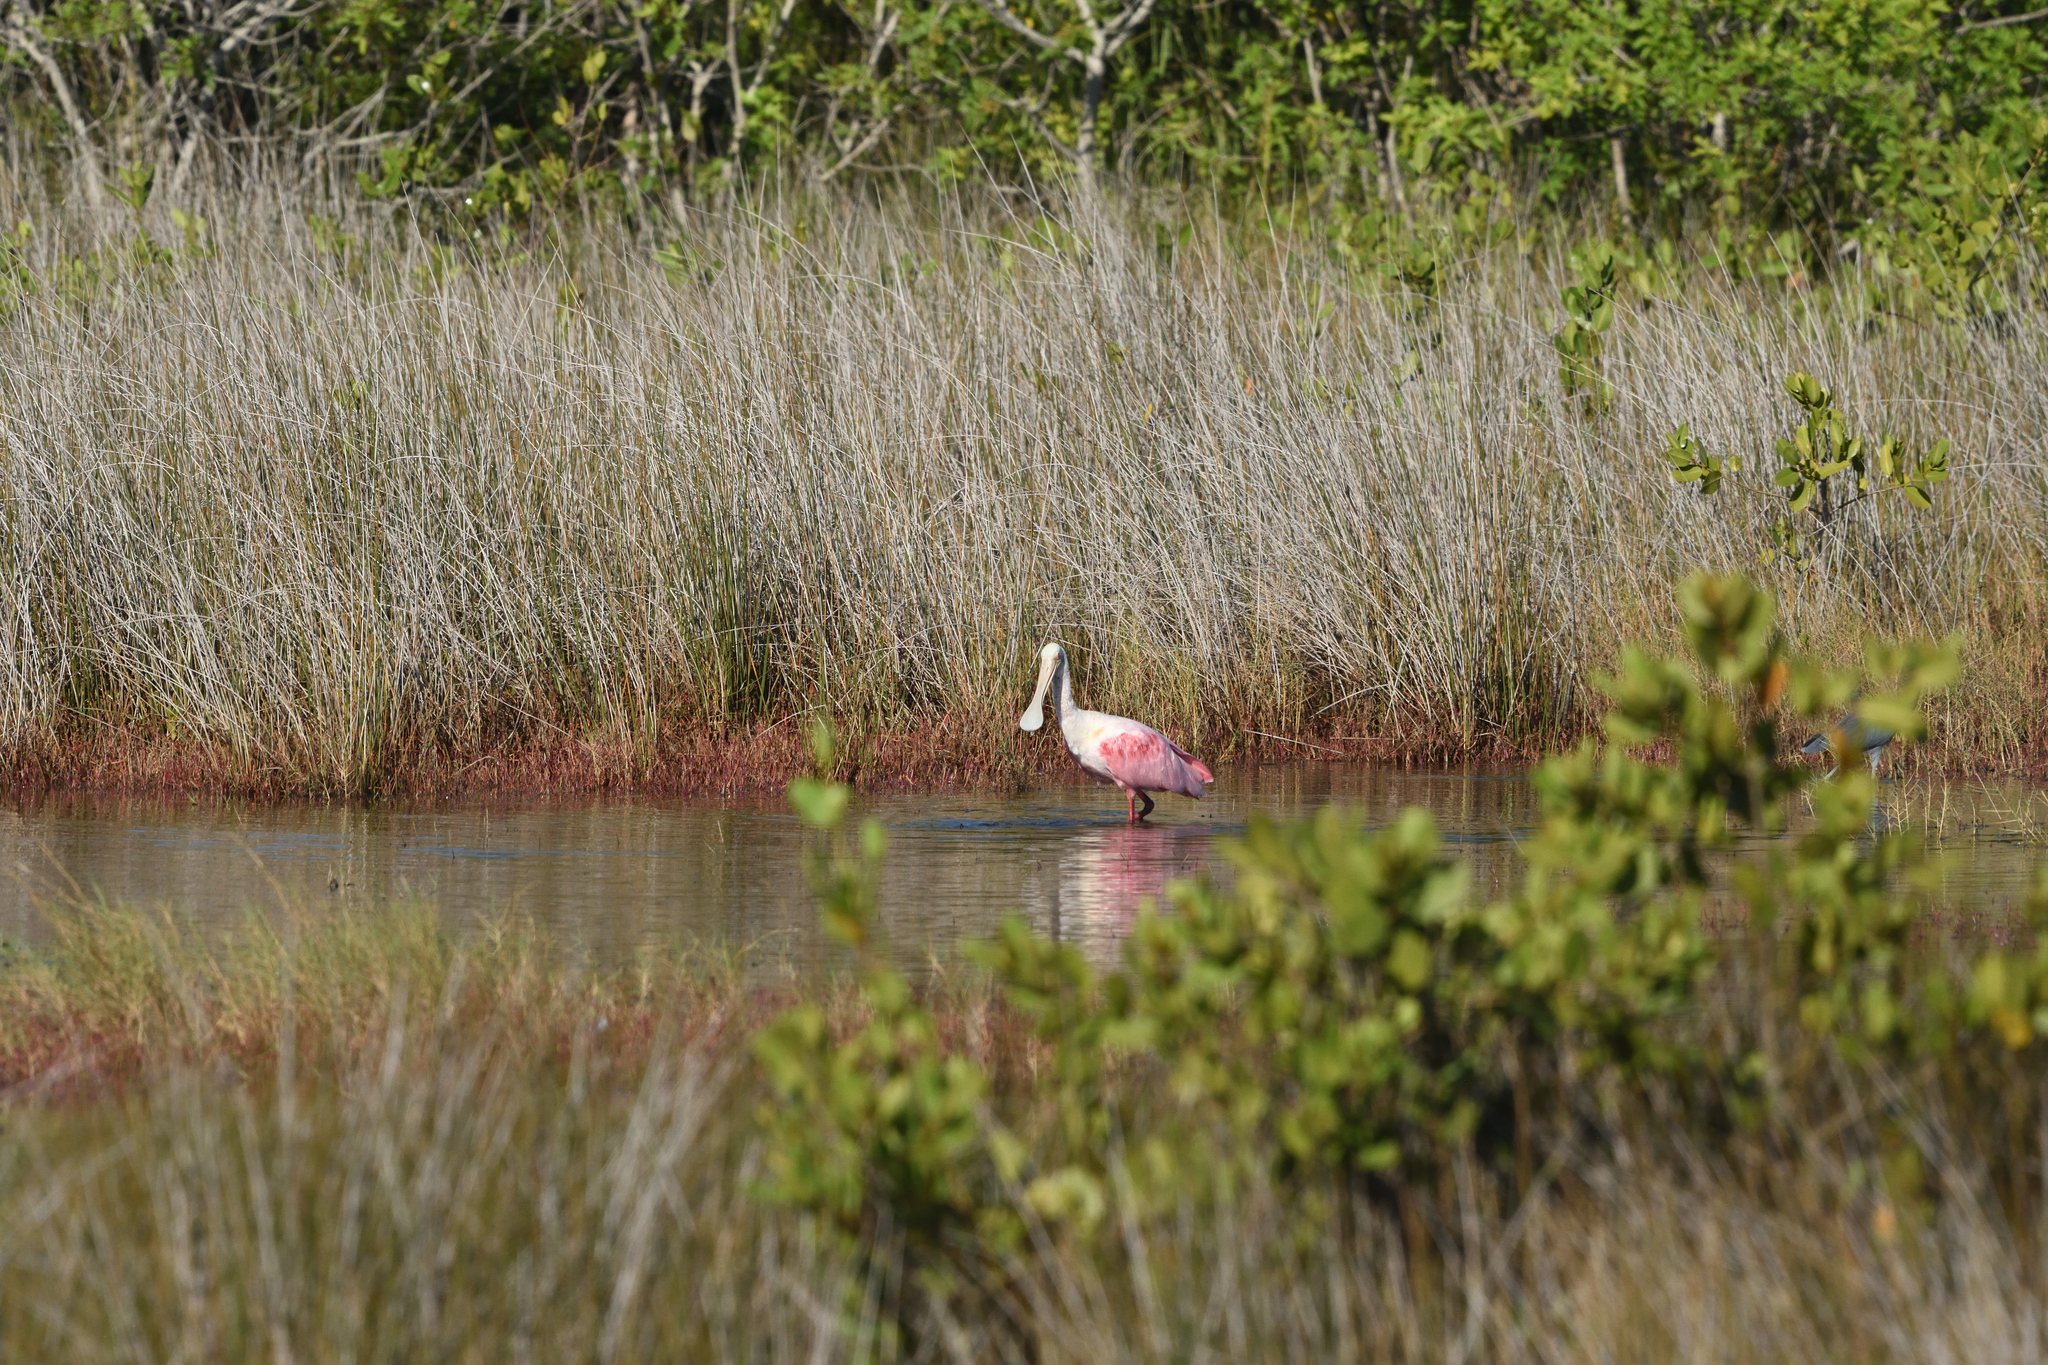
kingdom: Animalia
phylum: Chordata
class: Aves
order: Pelecaniformes
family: Threskiornithidae
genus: Platalea
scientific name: Platalea ajaja
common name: Roseate spoonbill
